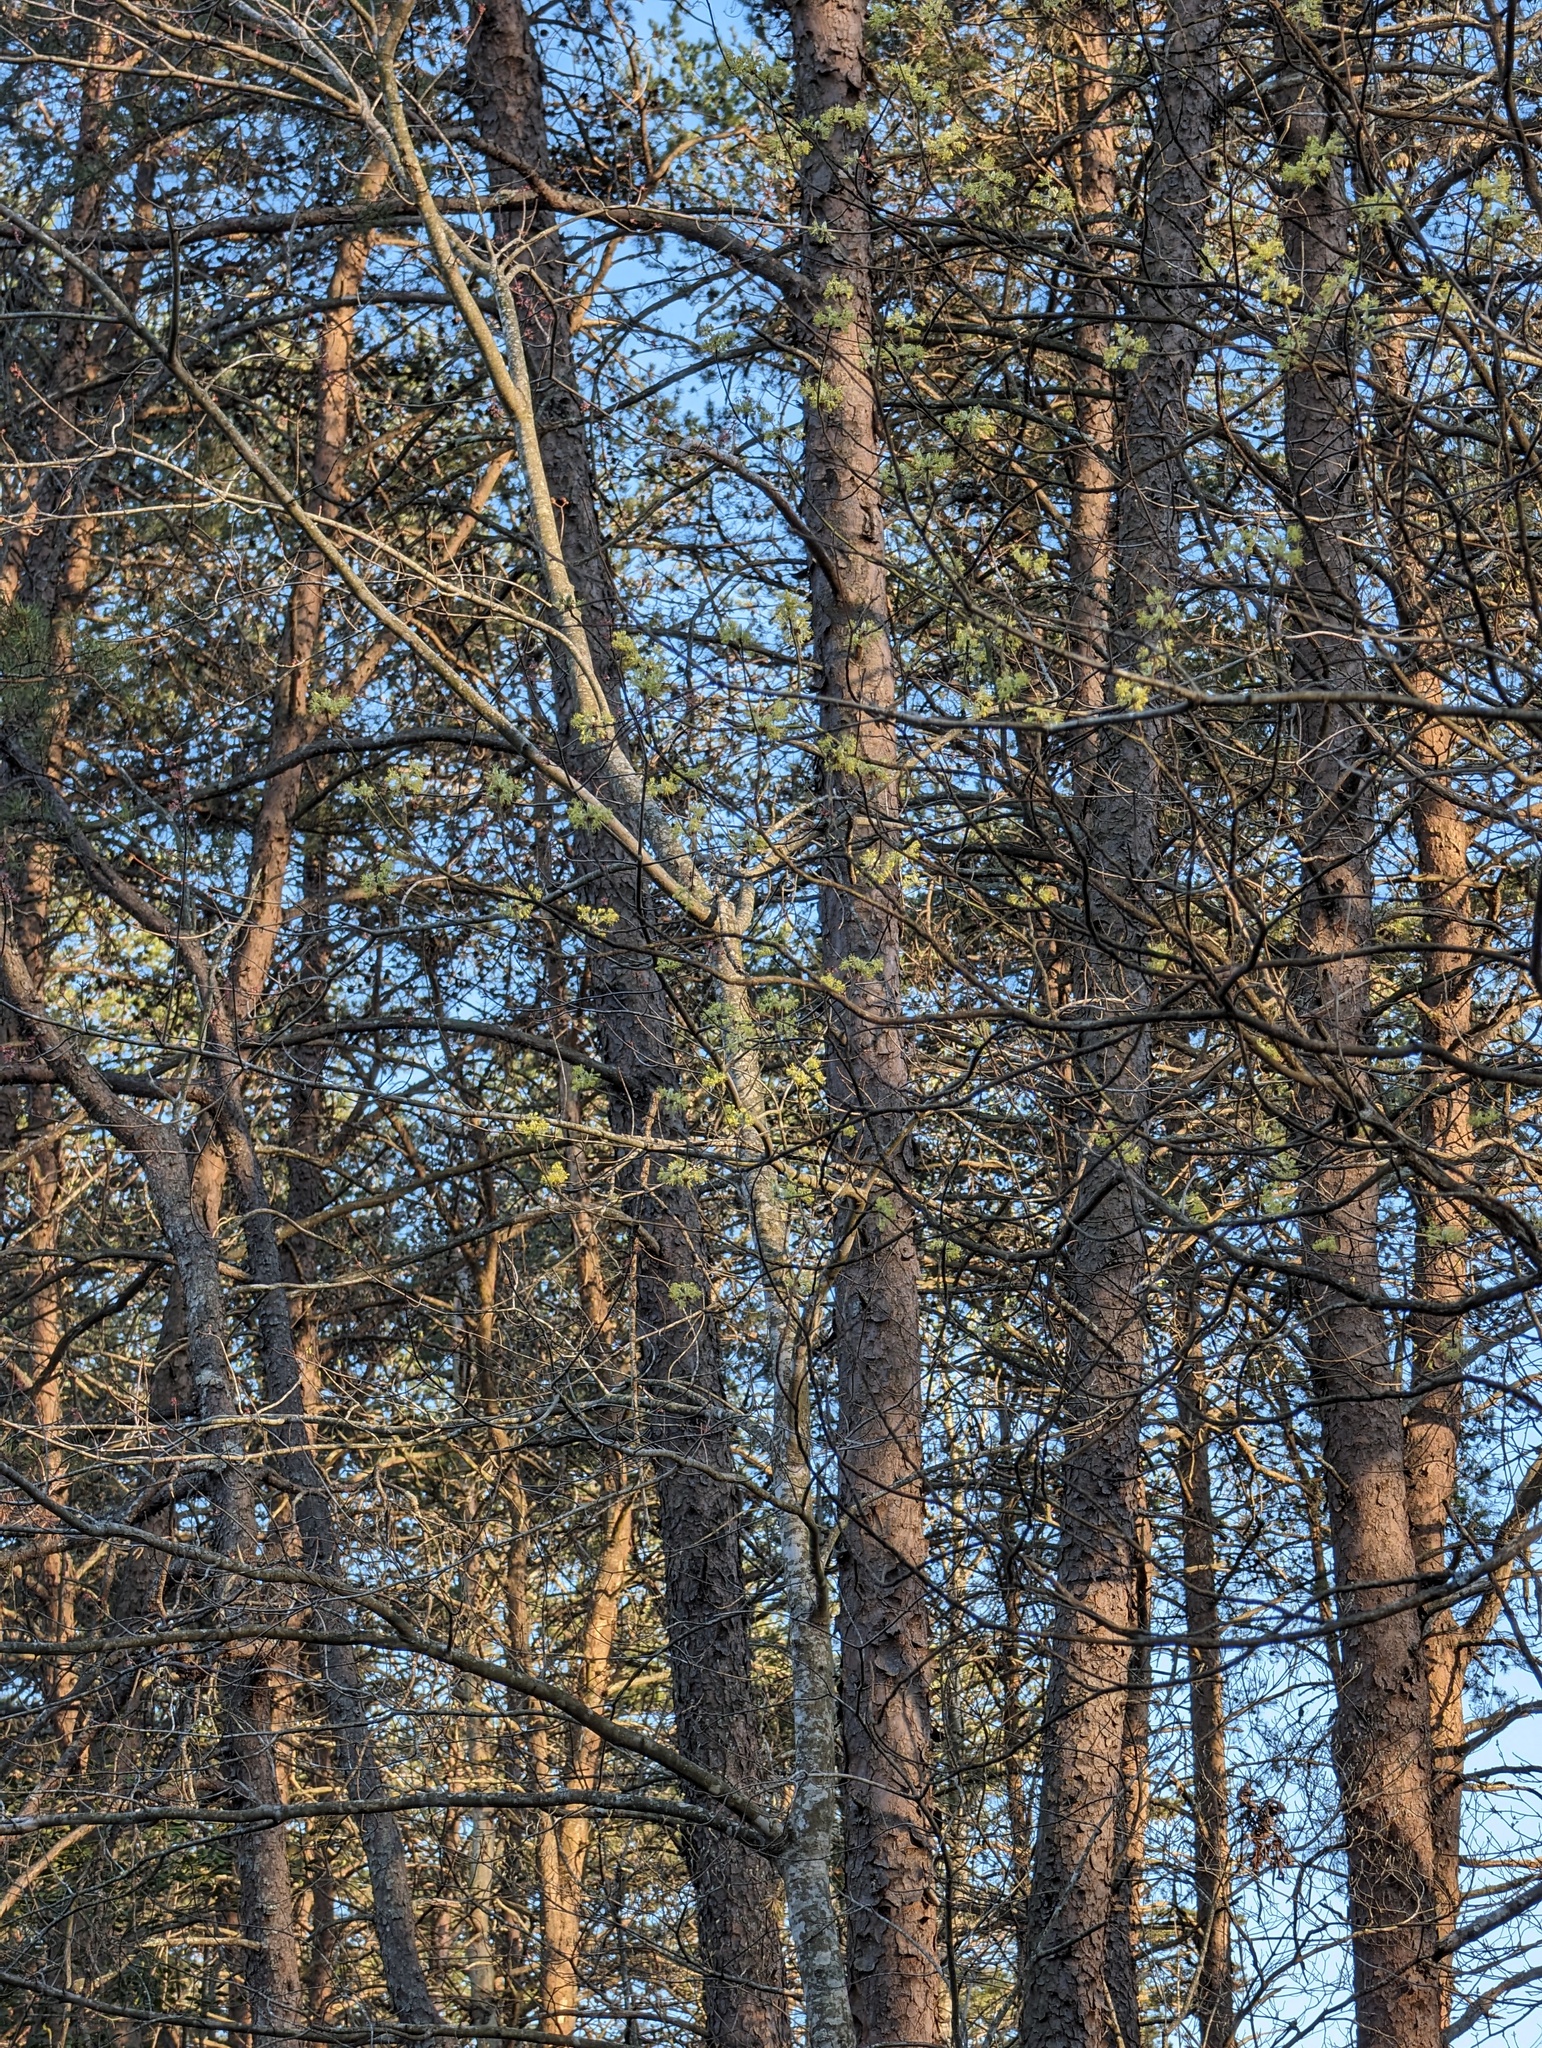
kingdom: Plantae
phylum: Tracheophyta
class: Magnoliopsida
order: Laurales
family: Lauraceae
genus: Sassafras
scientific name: Sassafras albidum
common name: Sassafras
